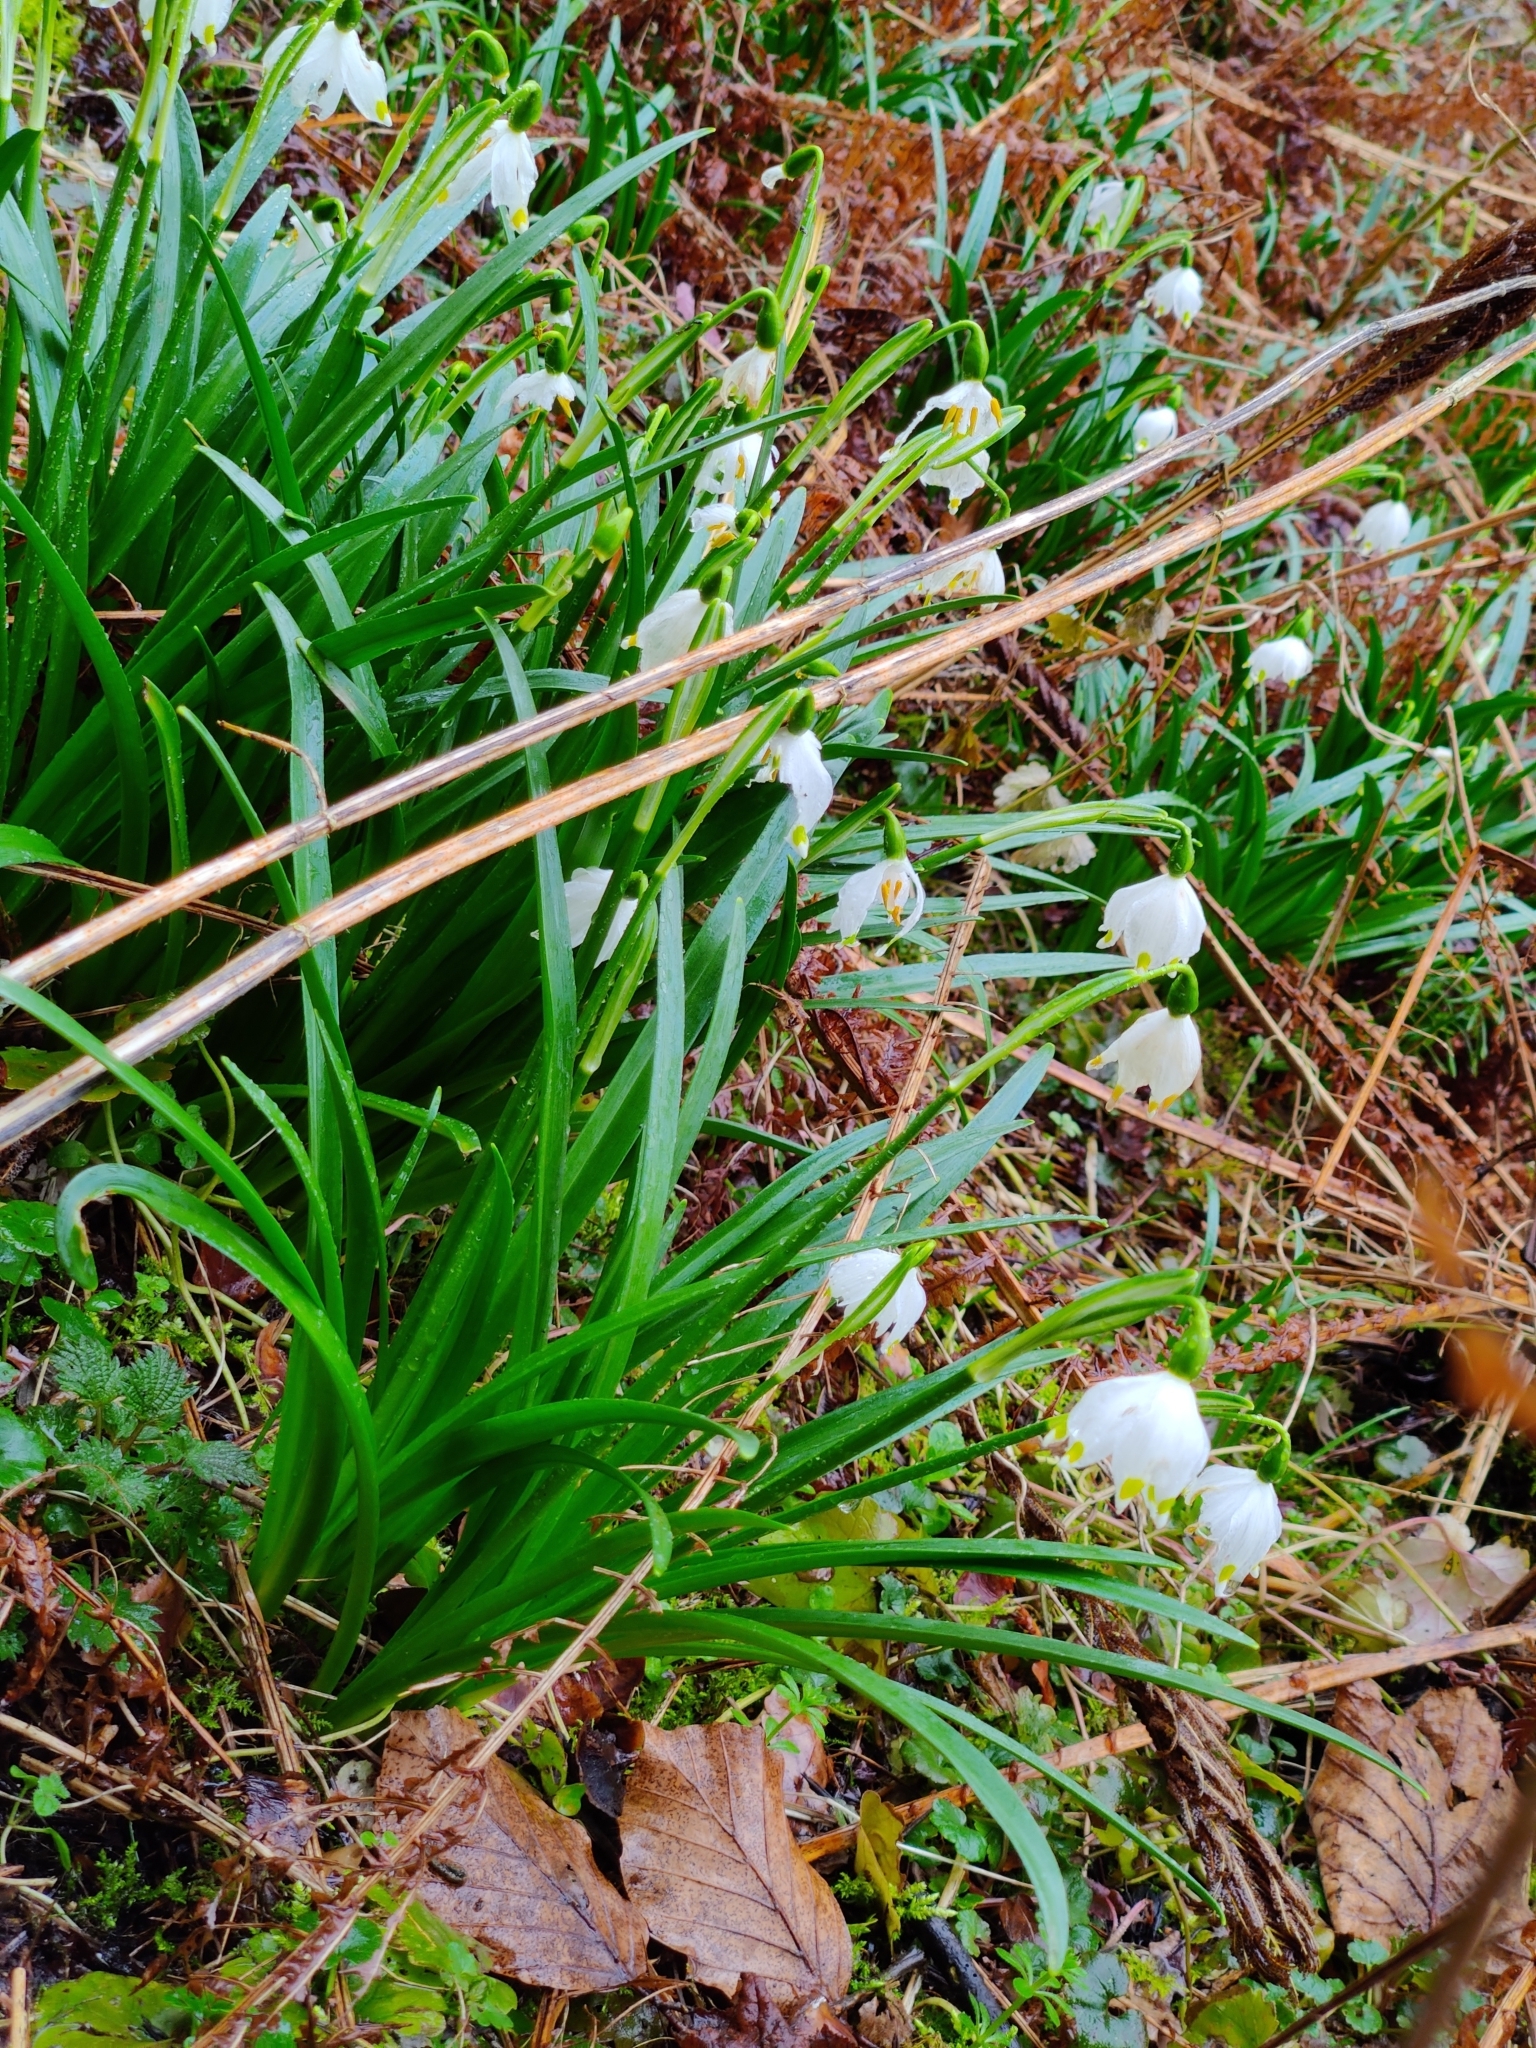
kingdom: Plantae
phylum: Tracheophyta
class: Liliopsida
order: Asparagales
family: Amaryllidaceae
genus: Leucojum
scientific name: Leucojum vernum
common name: Spring snowflake
